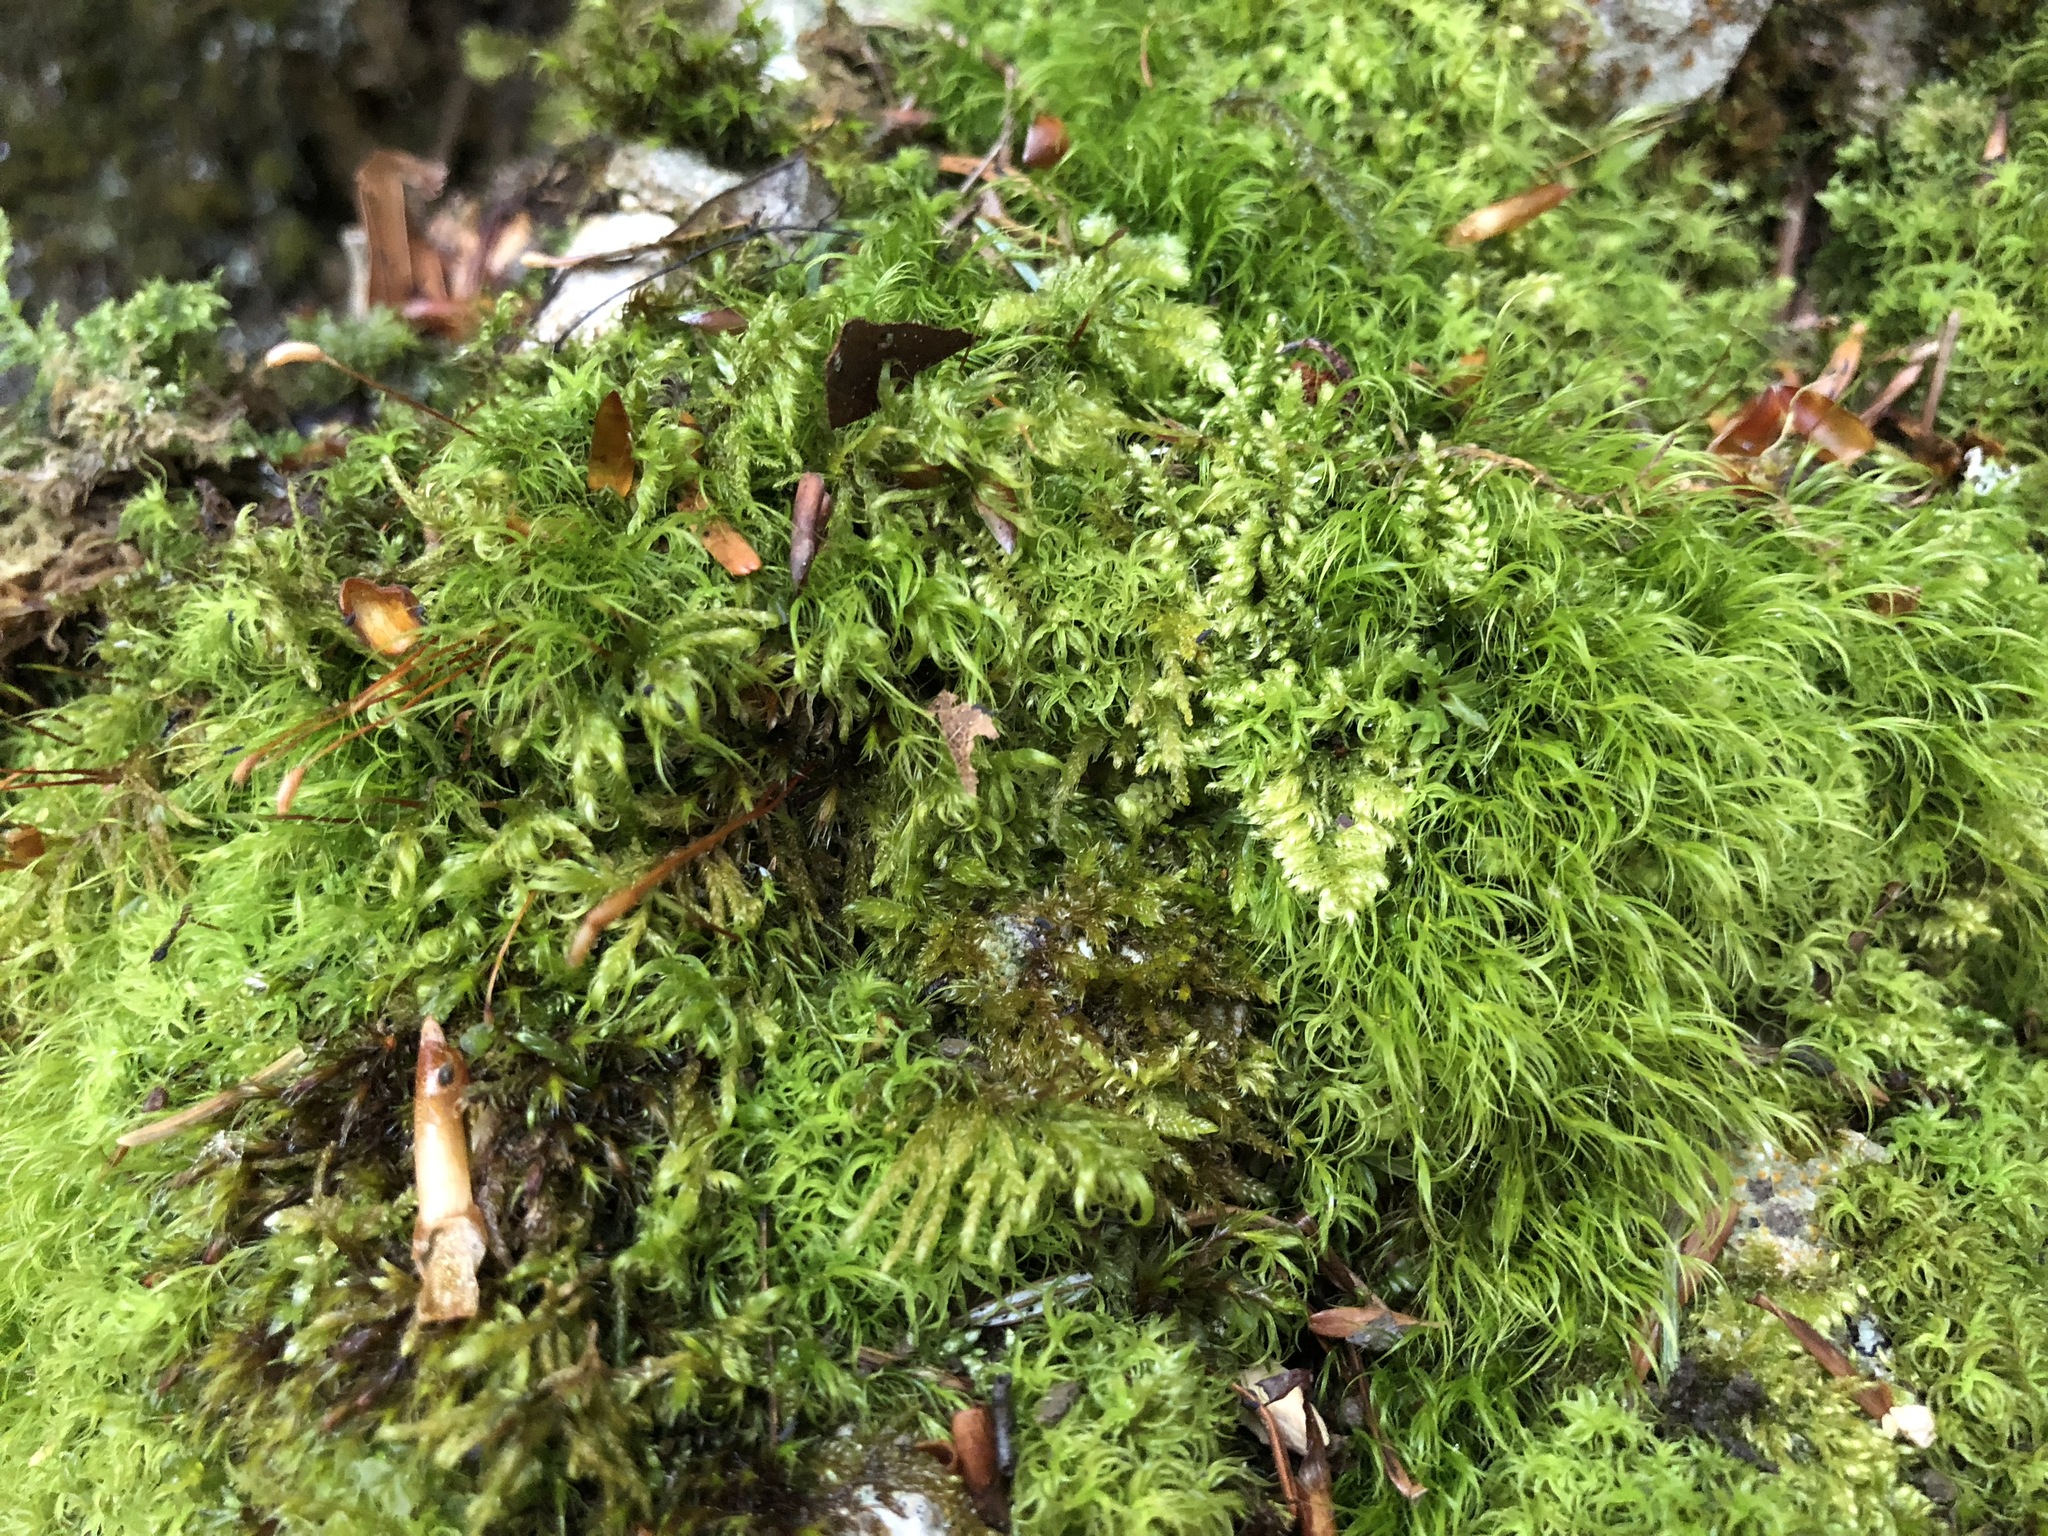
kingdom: Plantae
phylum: Bryophyta
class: Bryopsida
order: Dicranales
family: Leucobryaceae
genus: Dicranodontium
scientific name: Dicranodontium denudatum
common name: Beaked bow moss
